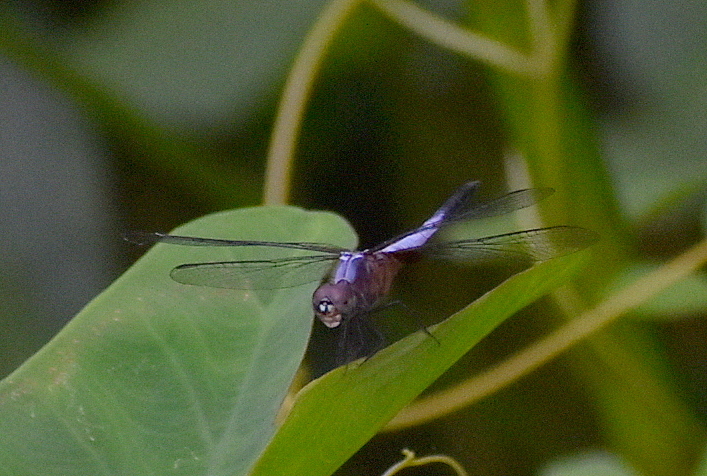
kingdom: Animalia
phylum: Arthropoda
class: Insecta
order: Odonata
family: Libellulidae
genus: Brachydiplax
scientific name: Brachydiplax chalybea
